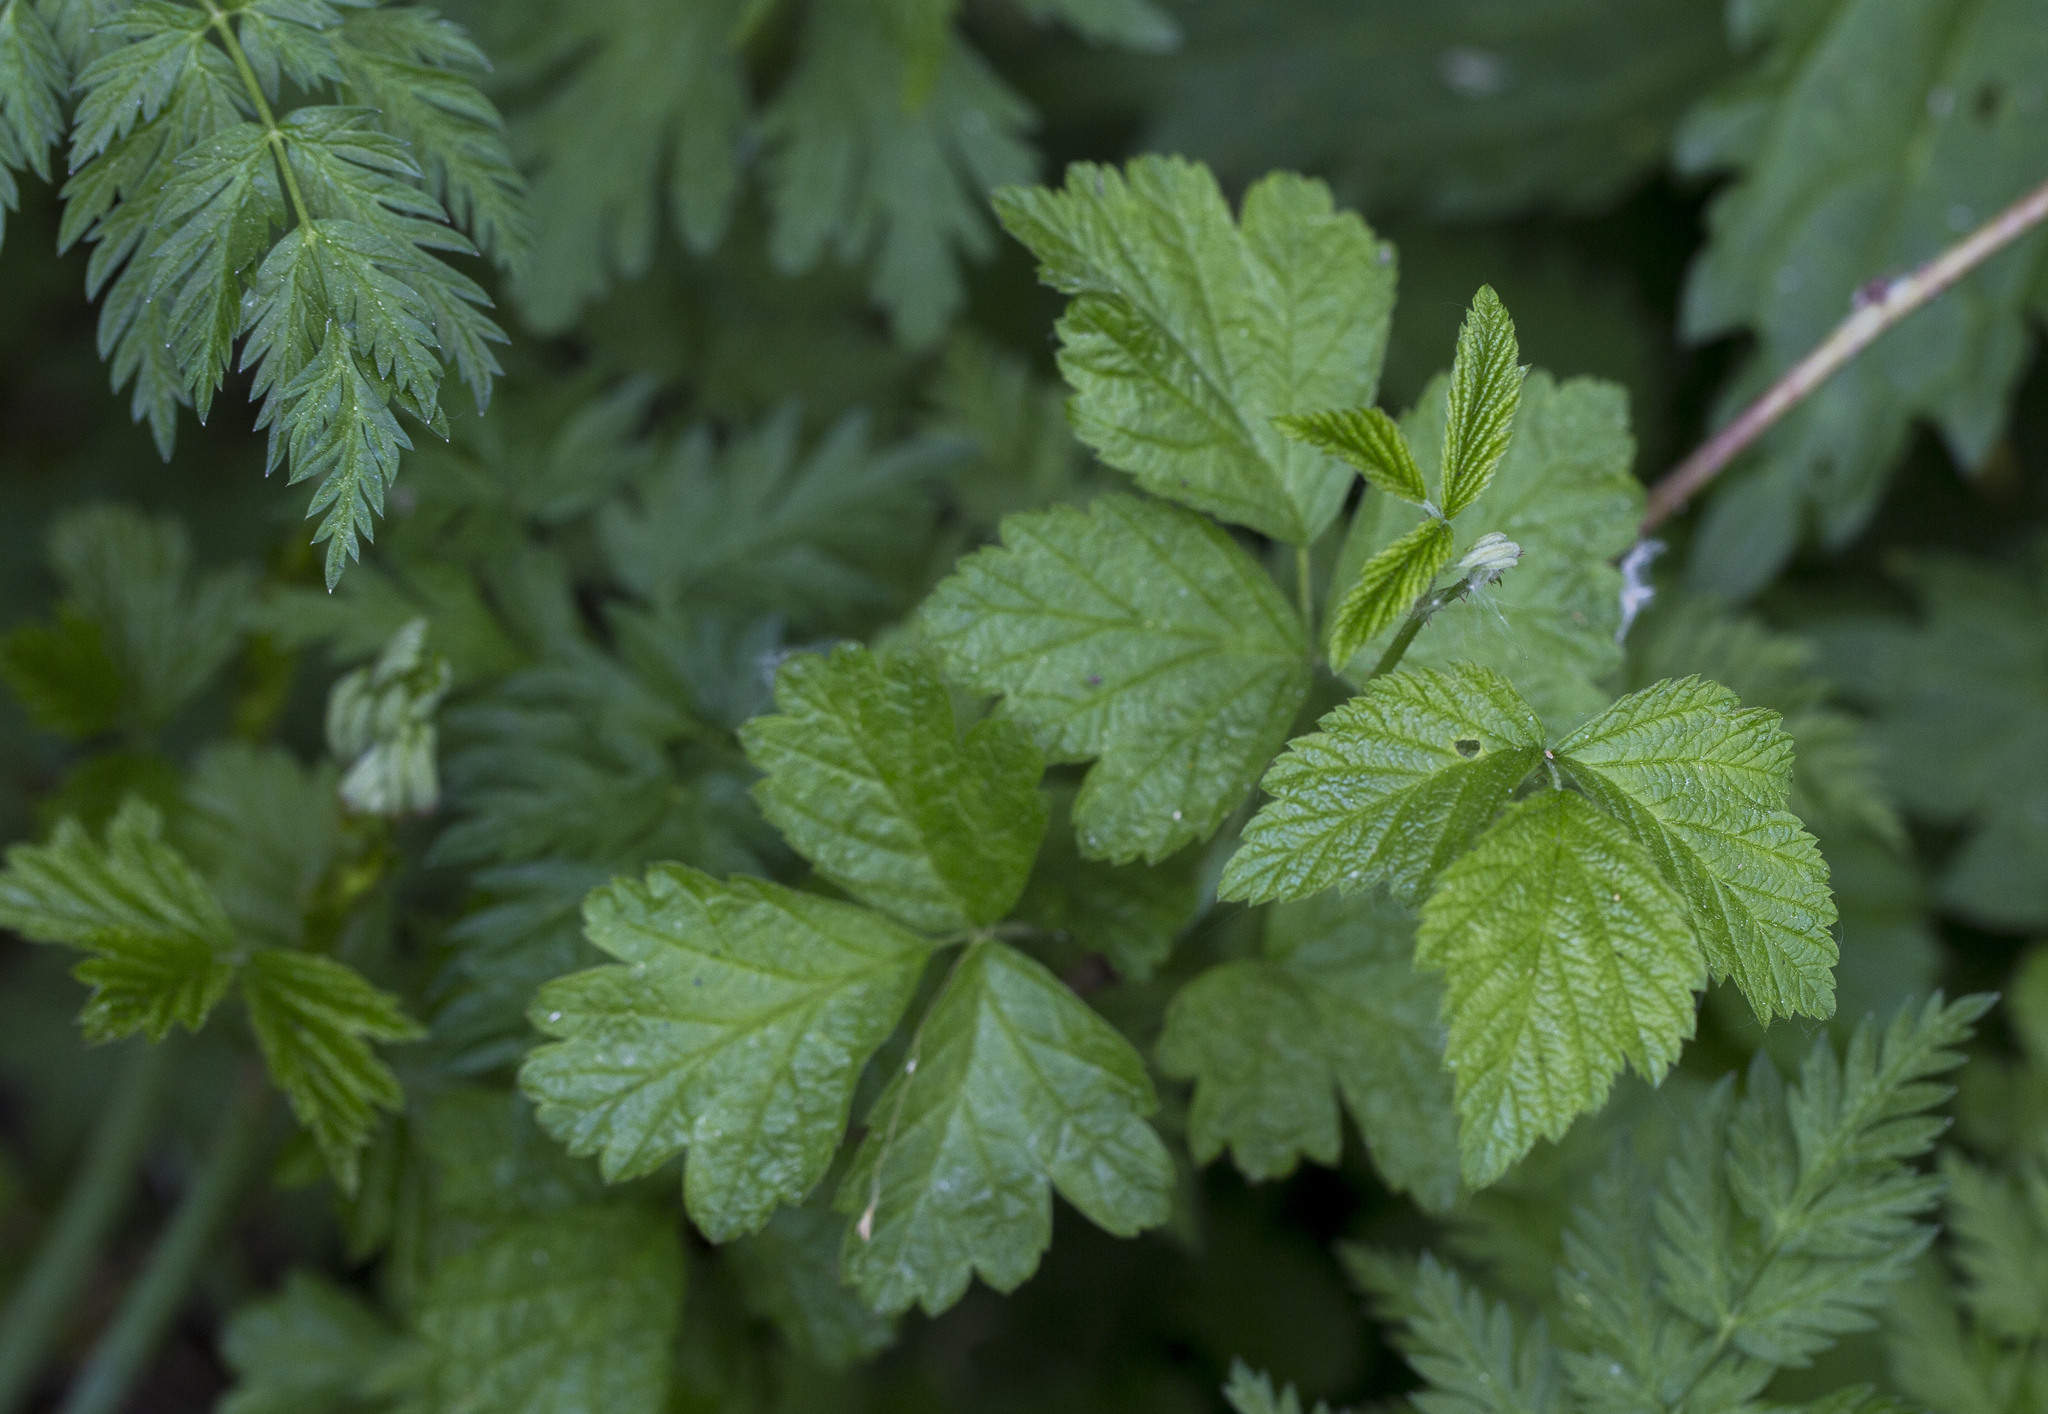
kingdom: Plantae
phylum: Tracheophyta
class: Magnoliopsida
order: Rosales
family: Rosaceae
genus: Rubus
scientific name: Rubus caesius
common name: Dewberry
